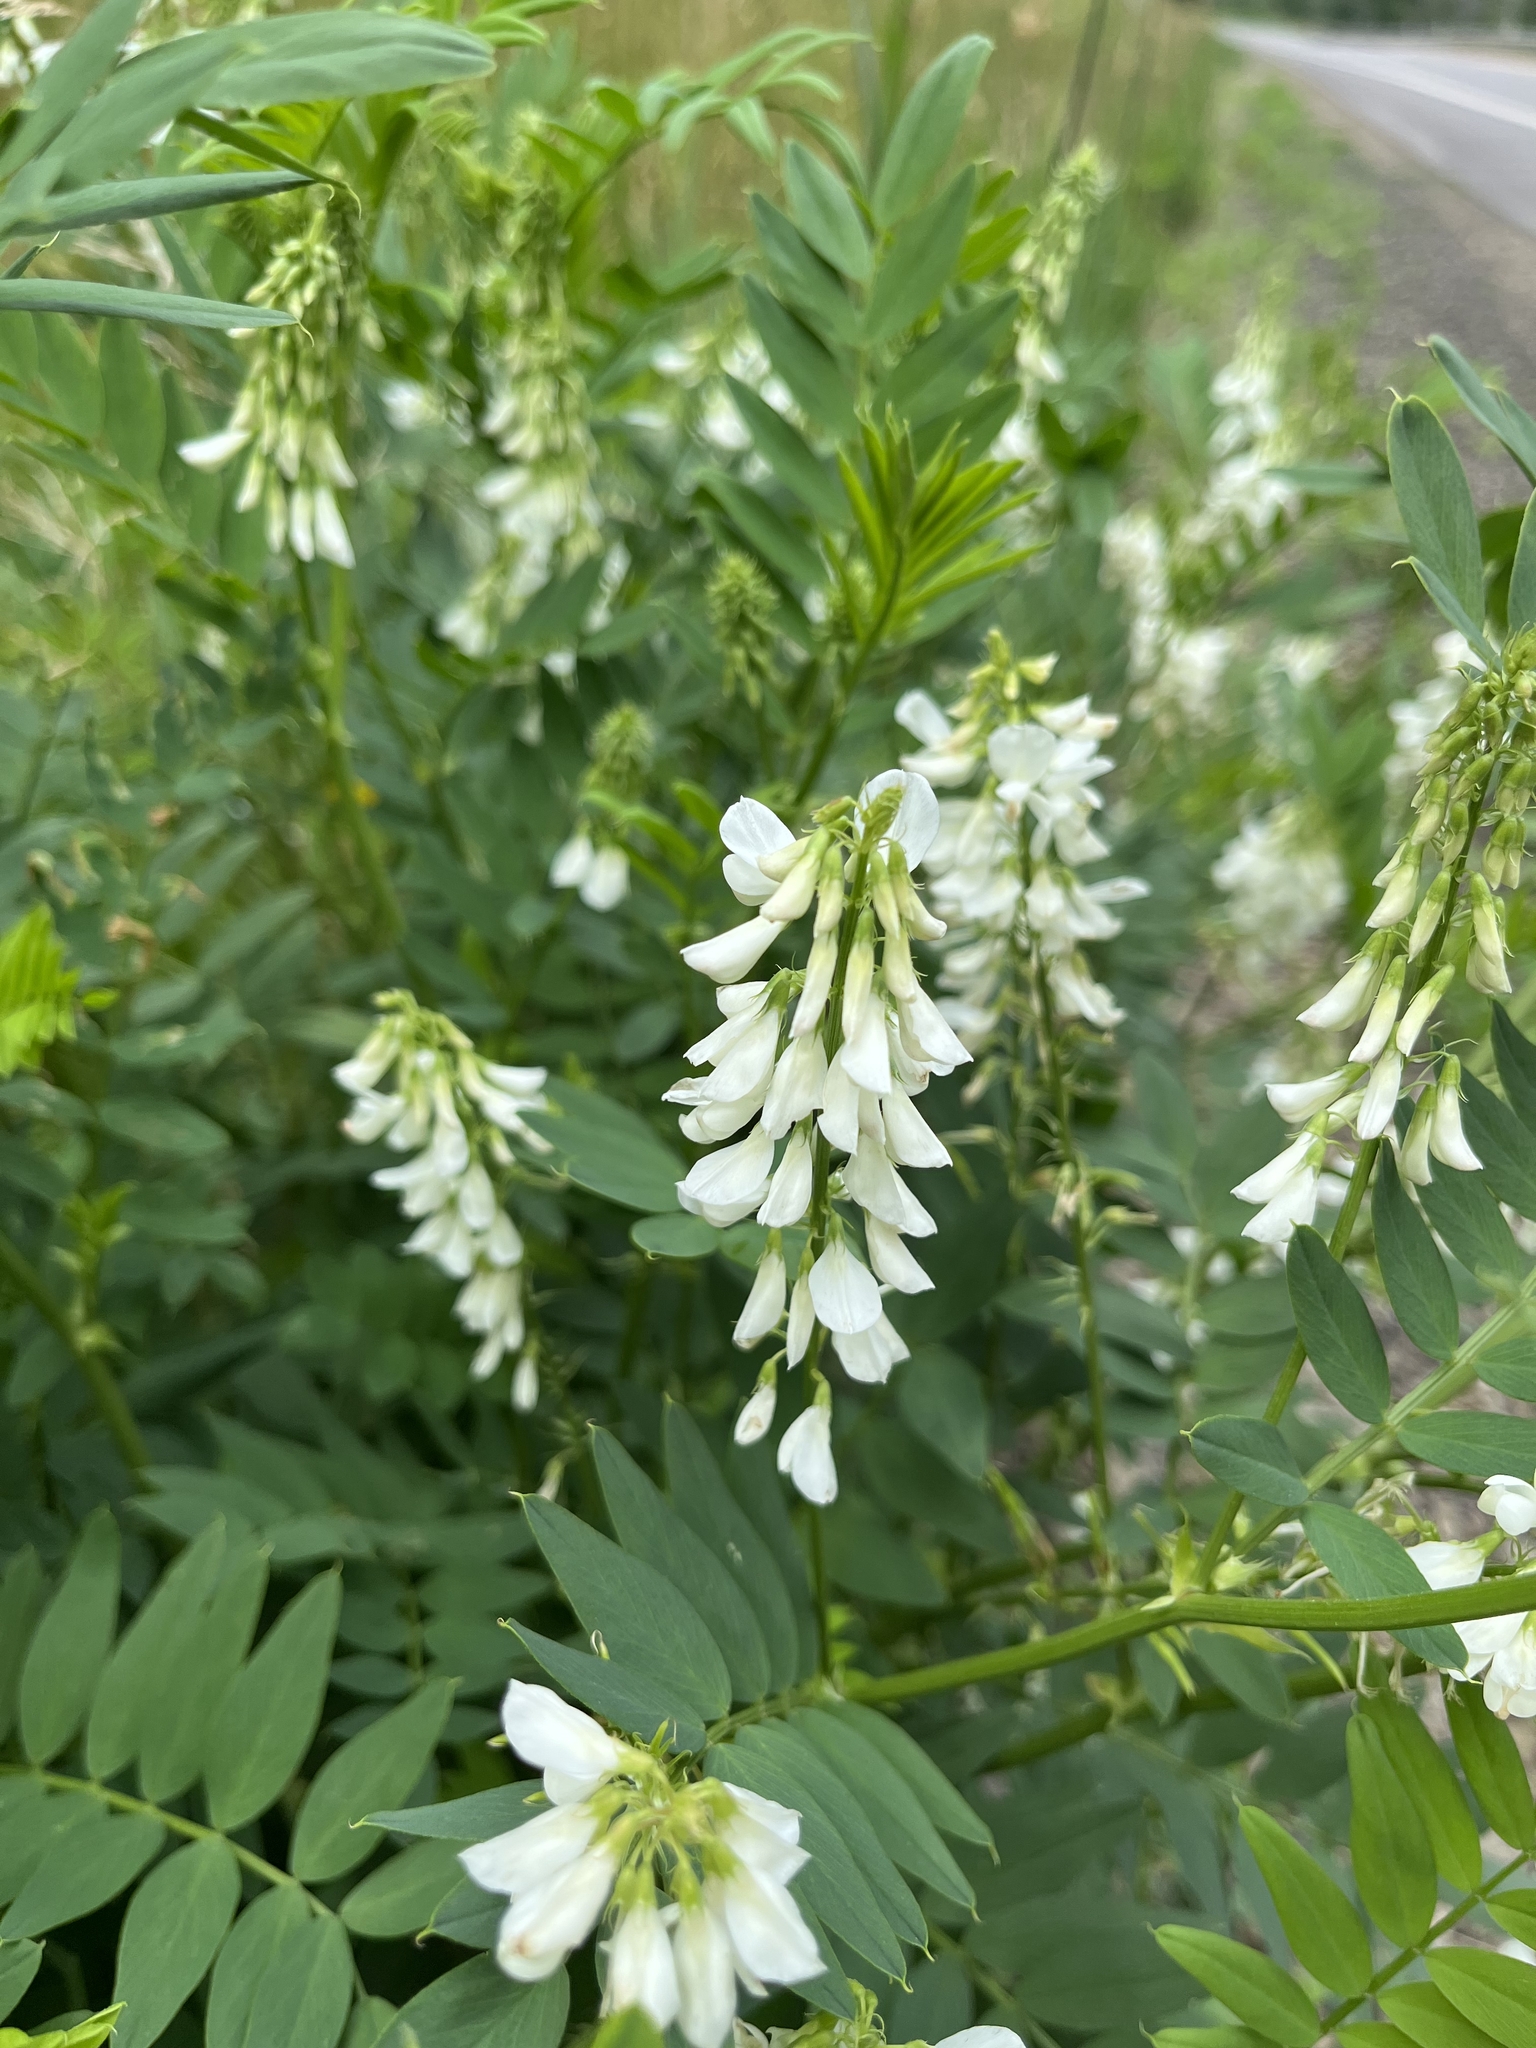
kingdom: Plantae
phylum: Tracheophyta
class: Magnoliopsida
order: Fabales
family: Fabaceae
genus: Galega
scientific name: Galega officinalis
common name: Goat's-rue
